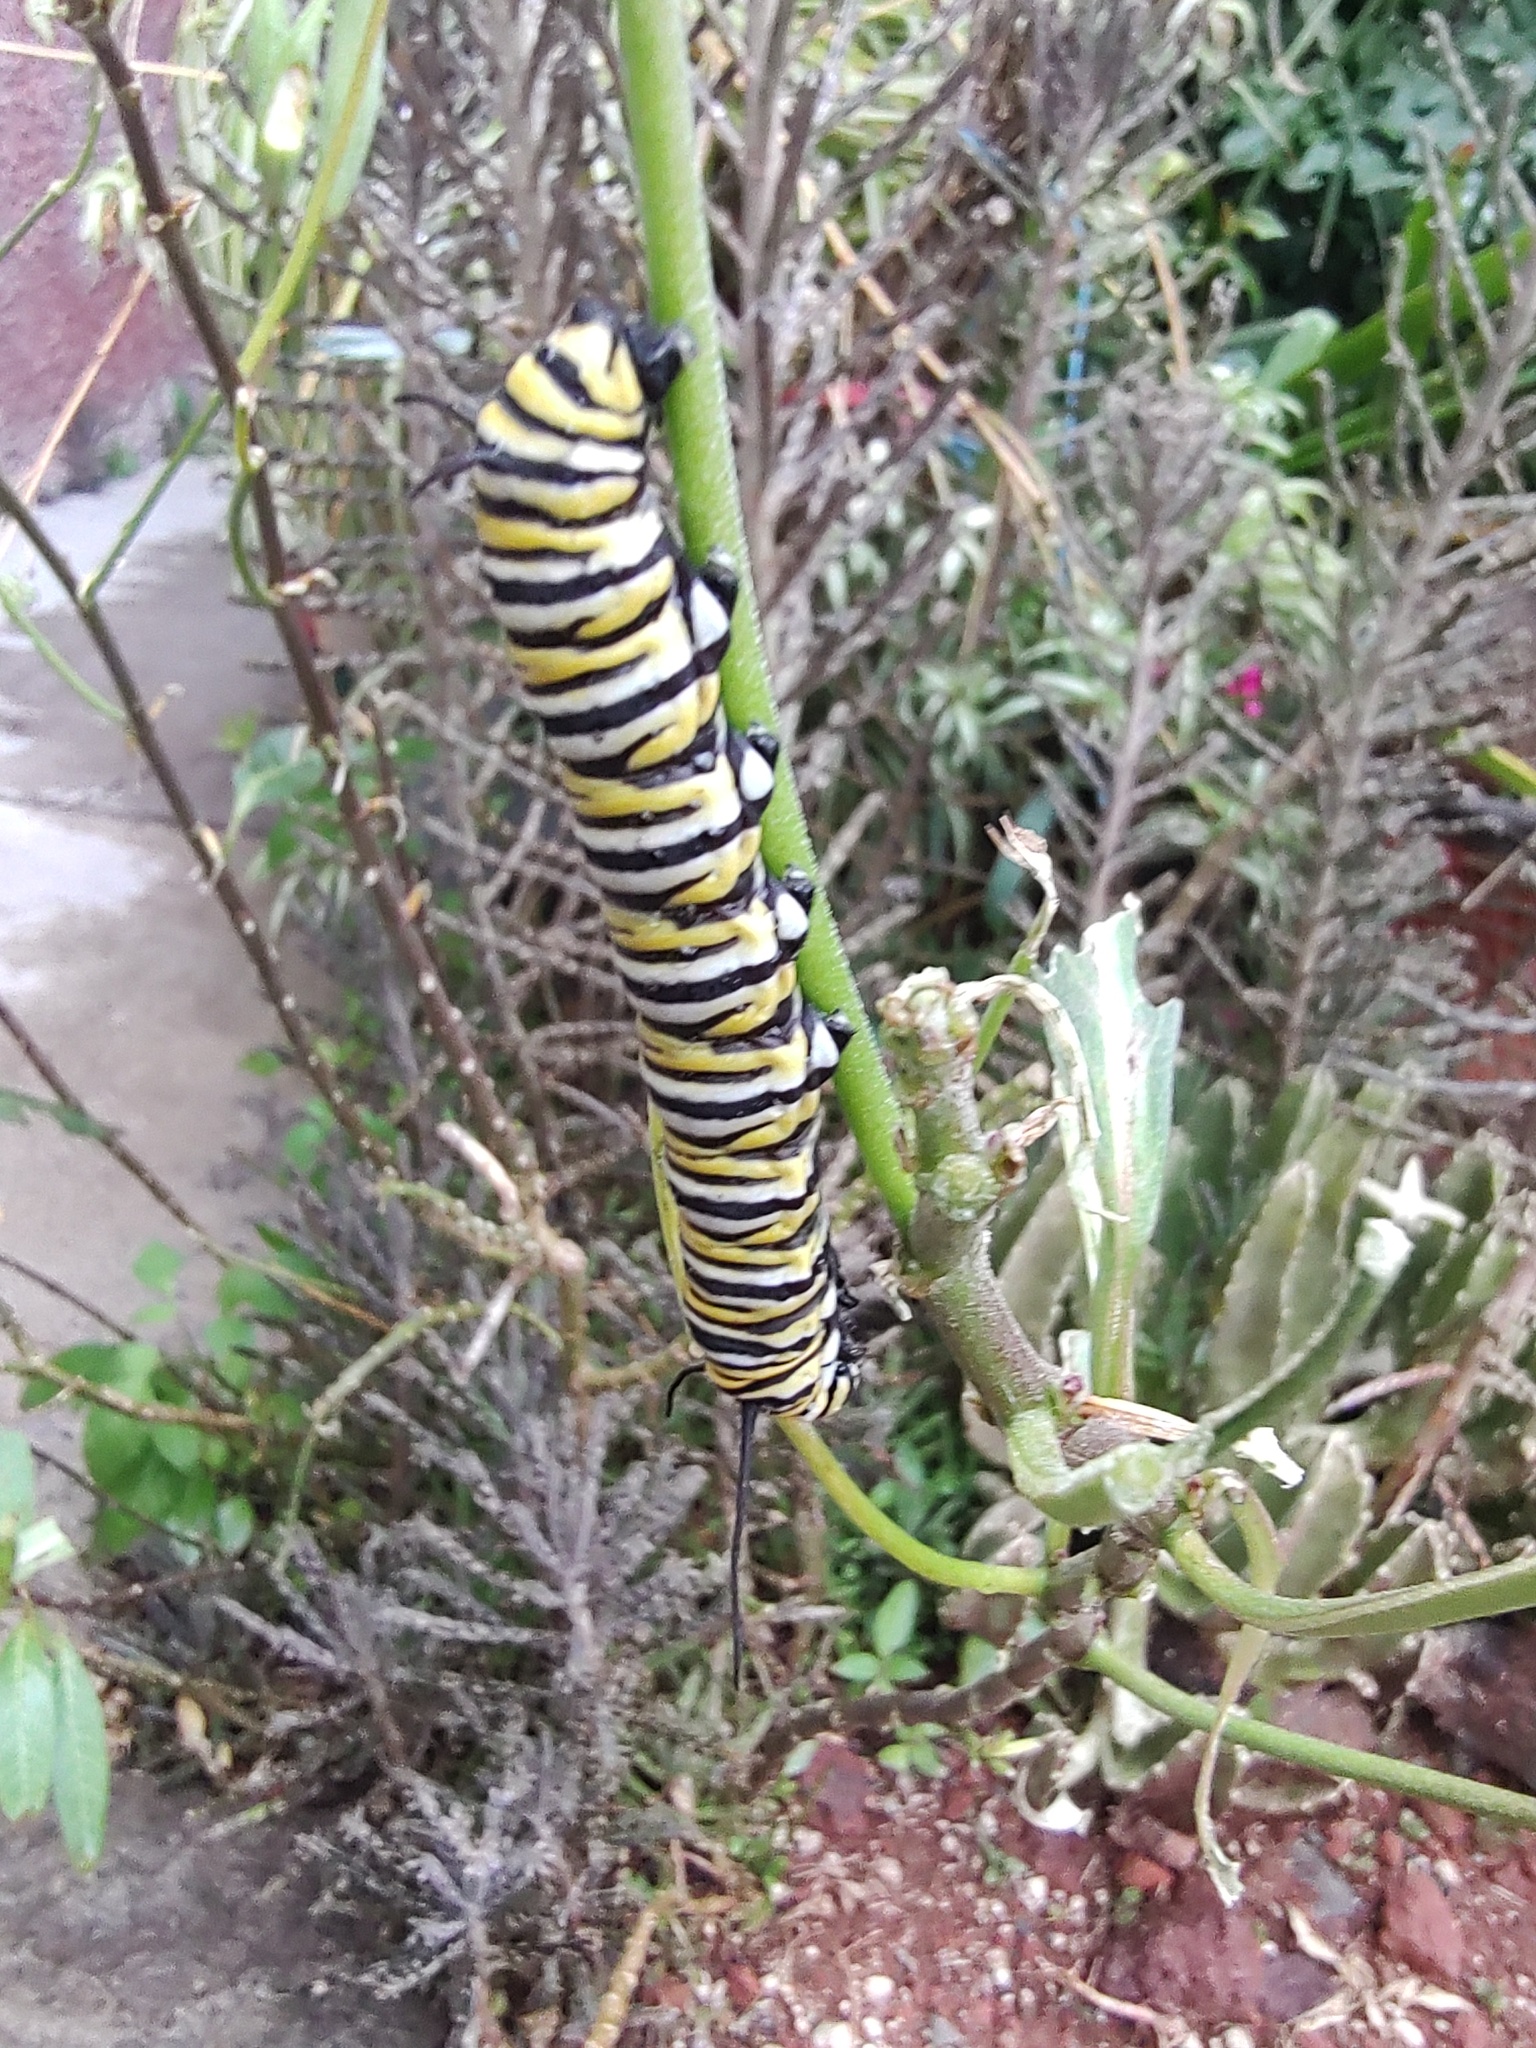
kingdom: Animalia
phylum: Arthropoda
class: Insecta
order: Lepidoptera
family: Nymphalidae
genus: Danaus
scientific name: Danaus plexippus
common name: Monarch
